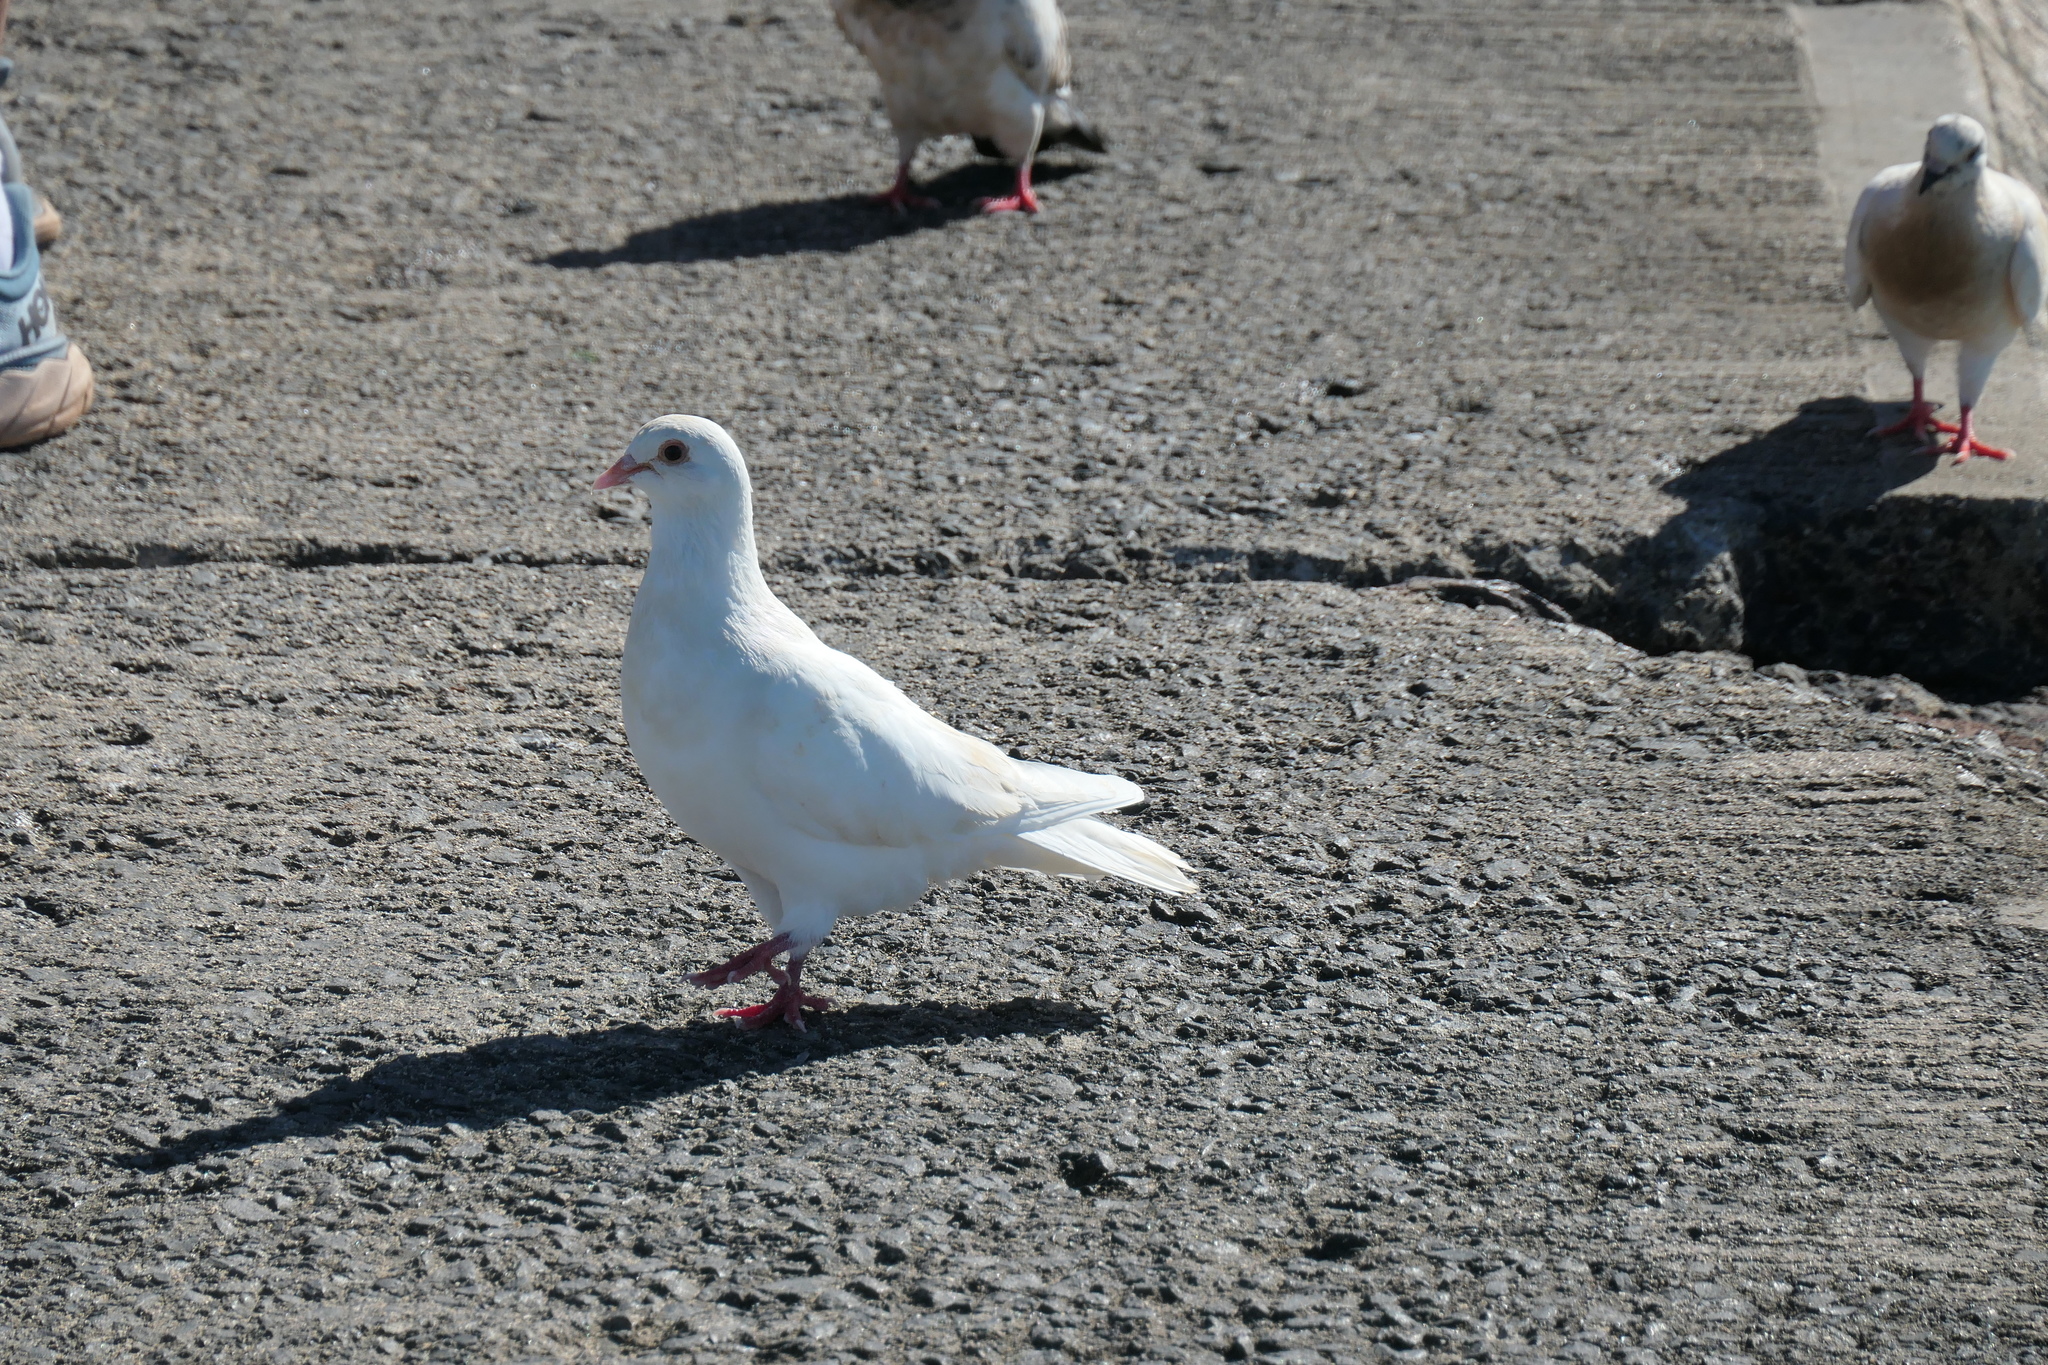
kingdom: Animalia
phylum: Chordata
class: Aves
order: Columbiformes
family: Columbidae
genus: Columba
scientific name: Columba livia
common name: Rock pigeon
